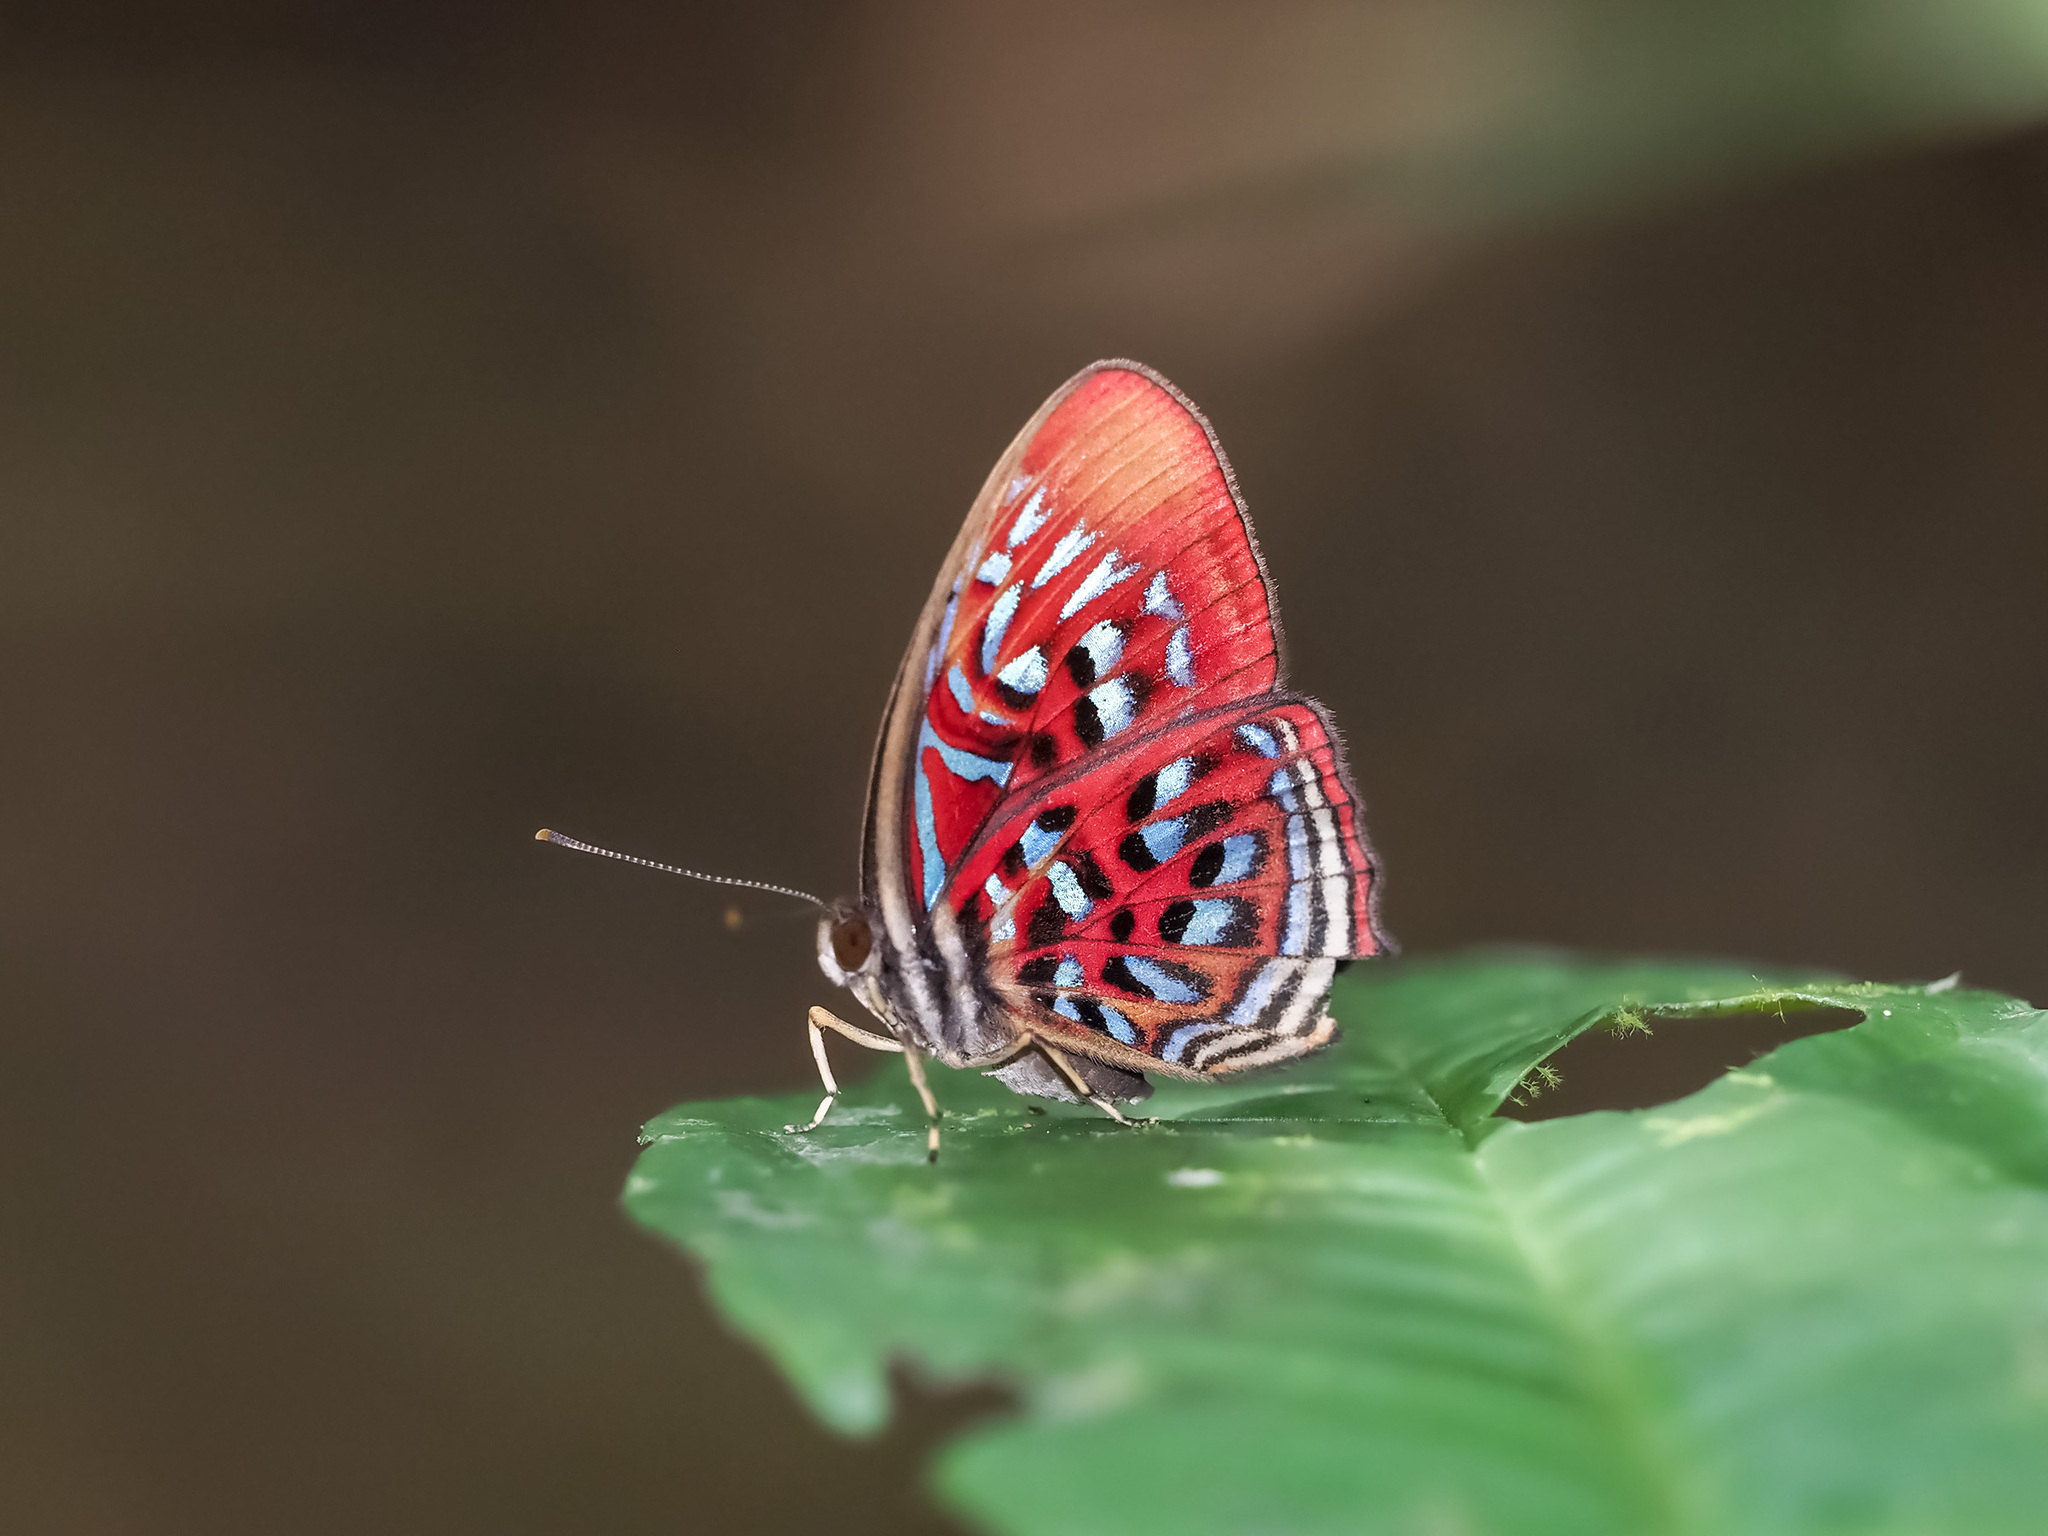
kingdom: Animalia
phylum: Arthropoda
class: Insecta
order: Lepidoptera
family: Riodinidae
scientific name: Riodinidae
